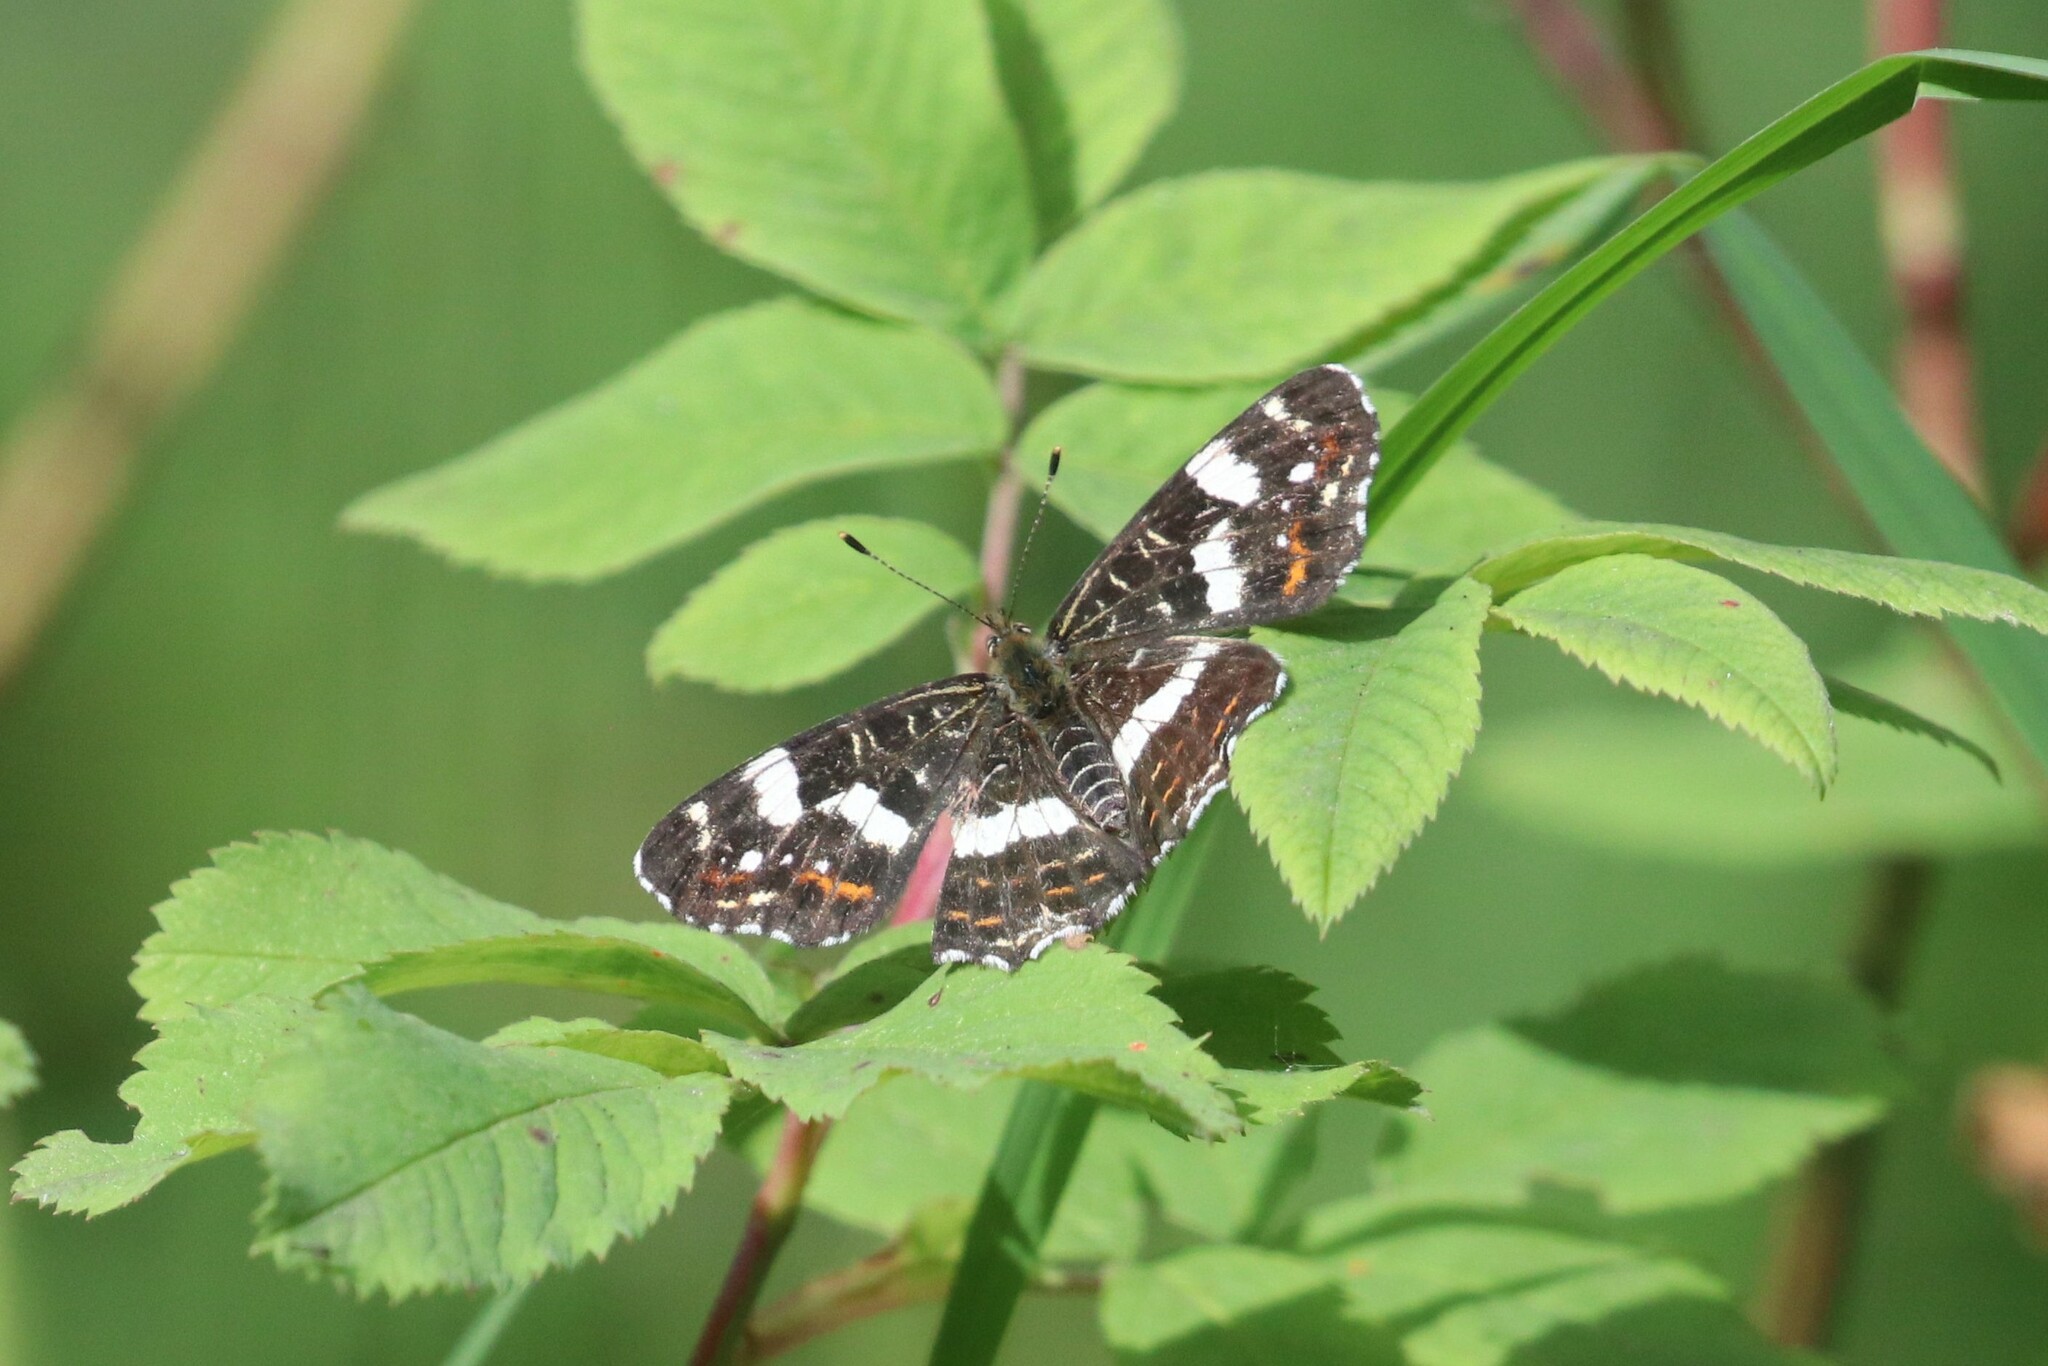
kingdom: Animalia
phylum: Arthropoda
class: Insecta
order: Lepidoptera
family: Nymphalidae
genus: Araschnia
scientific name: Araschnia levana
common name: Map butterfly
